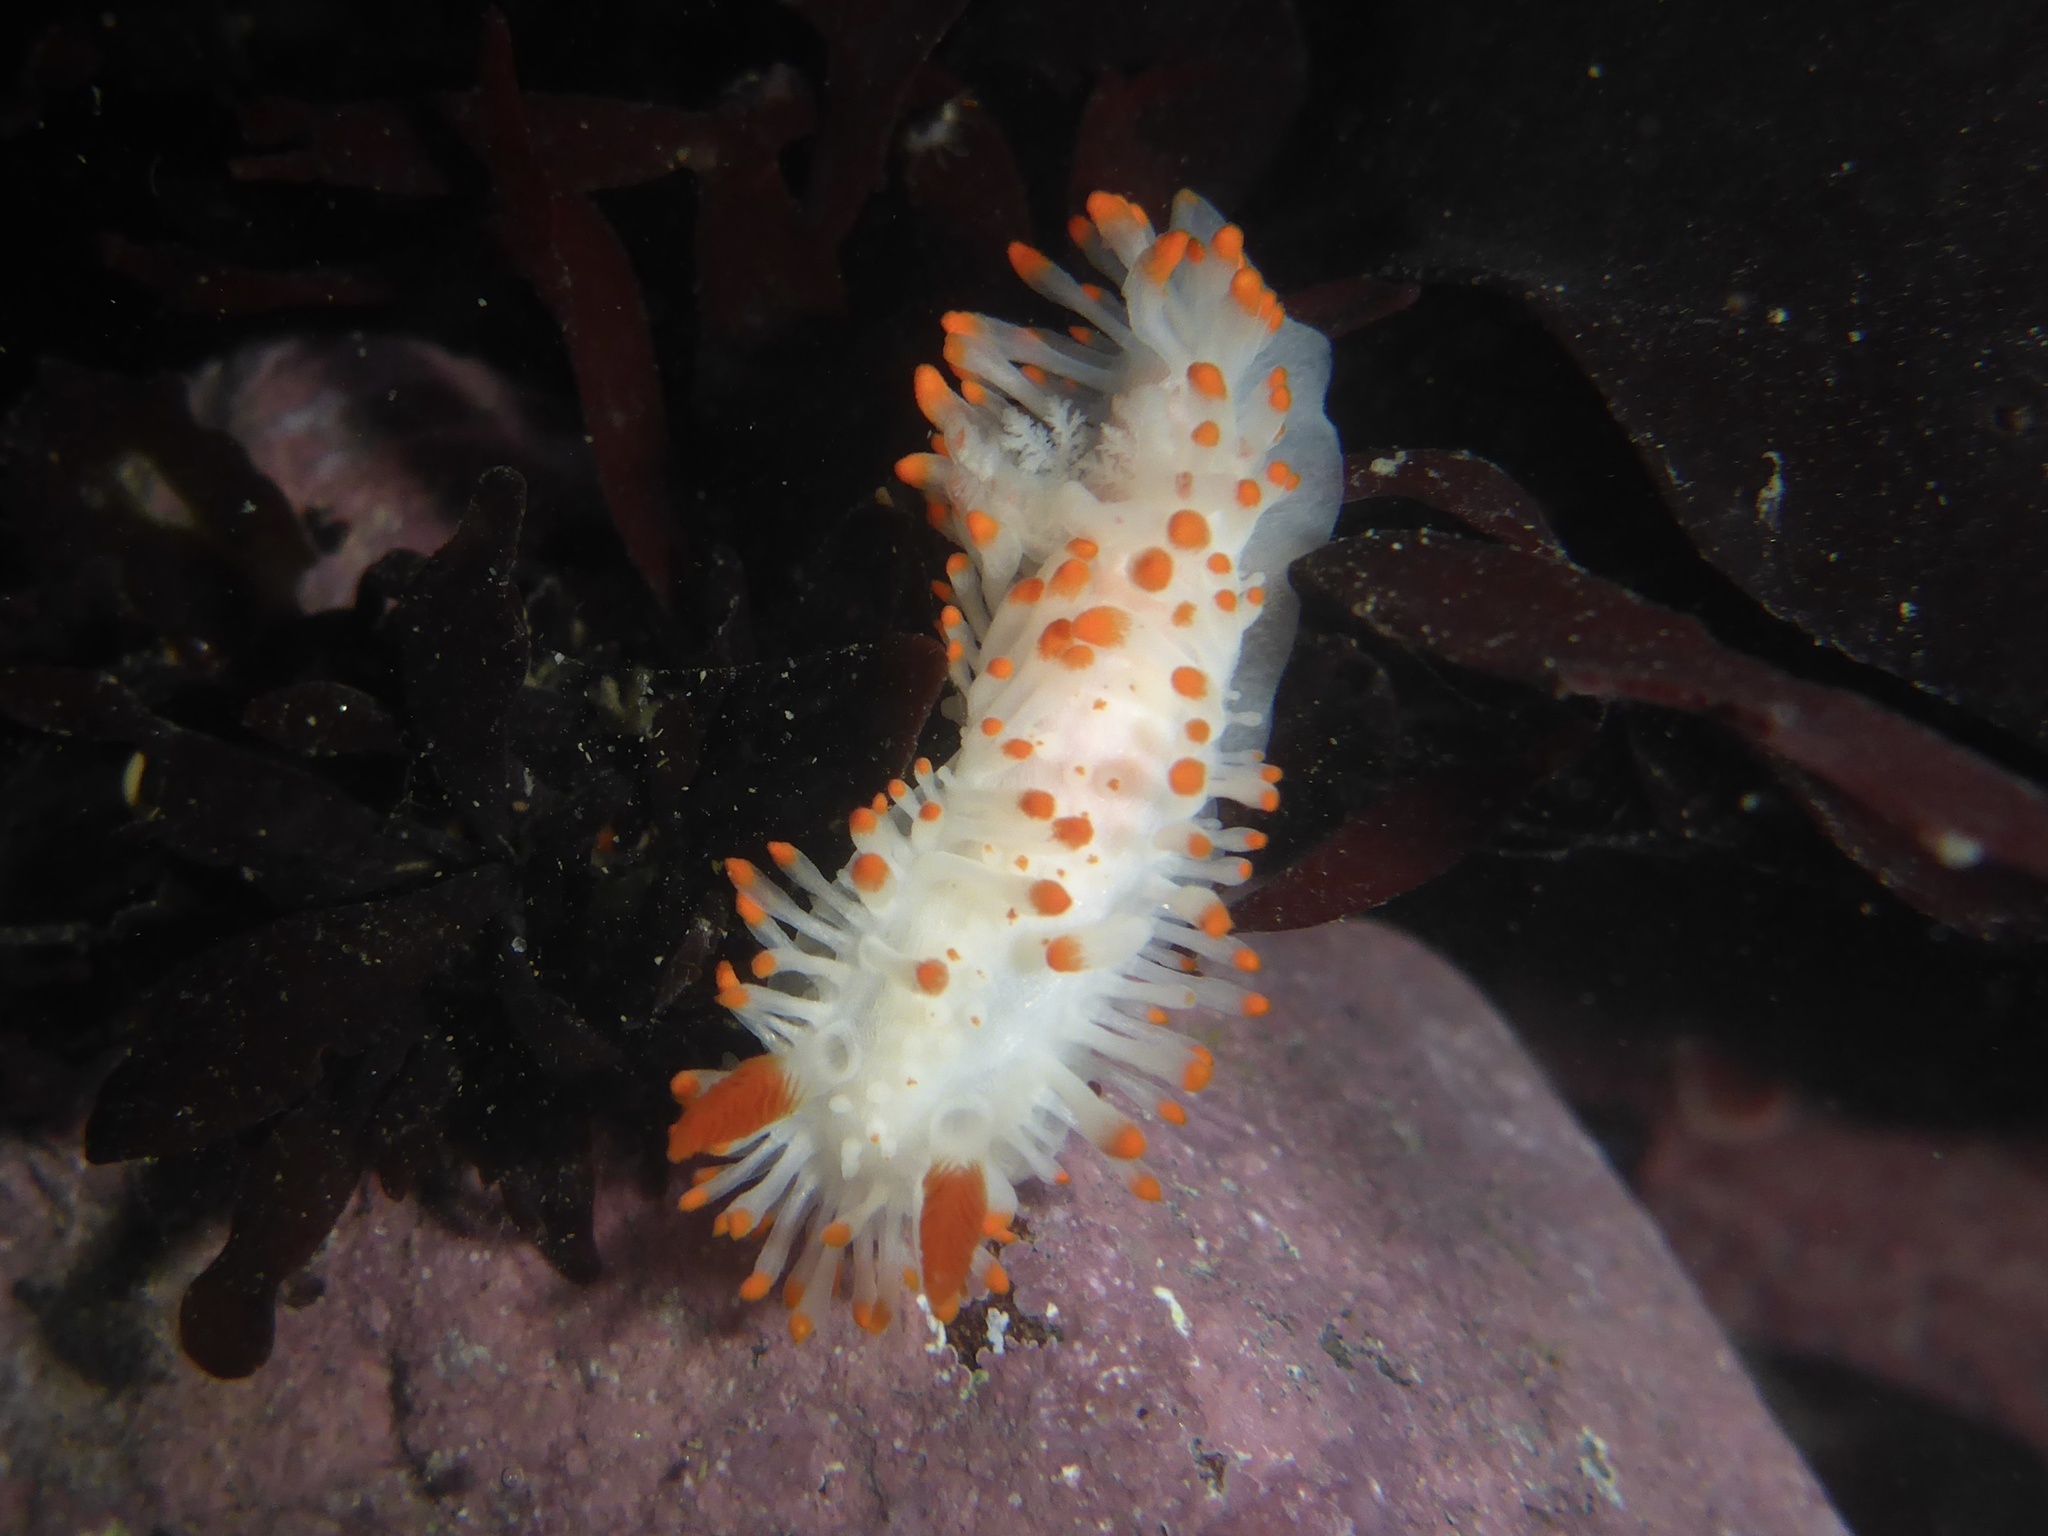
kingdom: Animalia
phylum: Mollusca
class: Gastropoda
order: Nudibranchia
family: Polyceridae
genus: Limacia
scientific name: Limacia cockerelli
